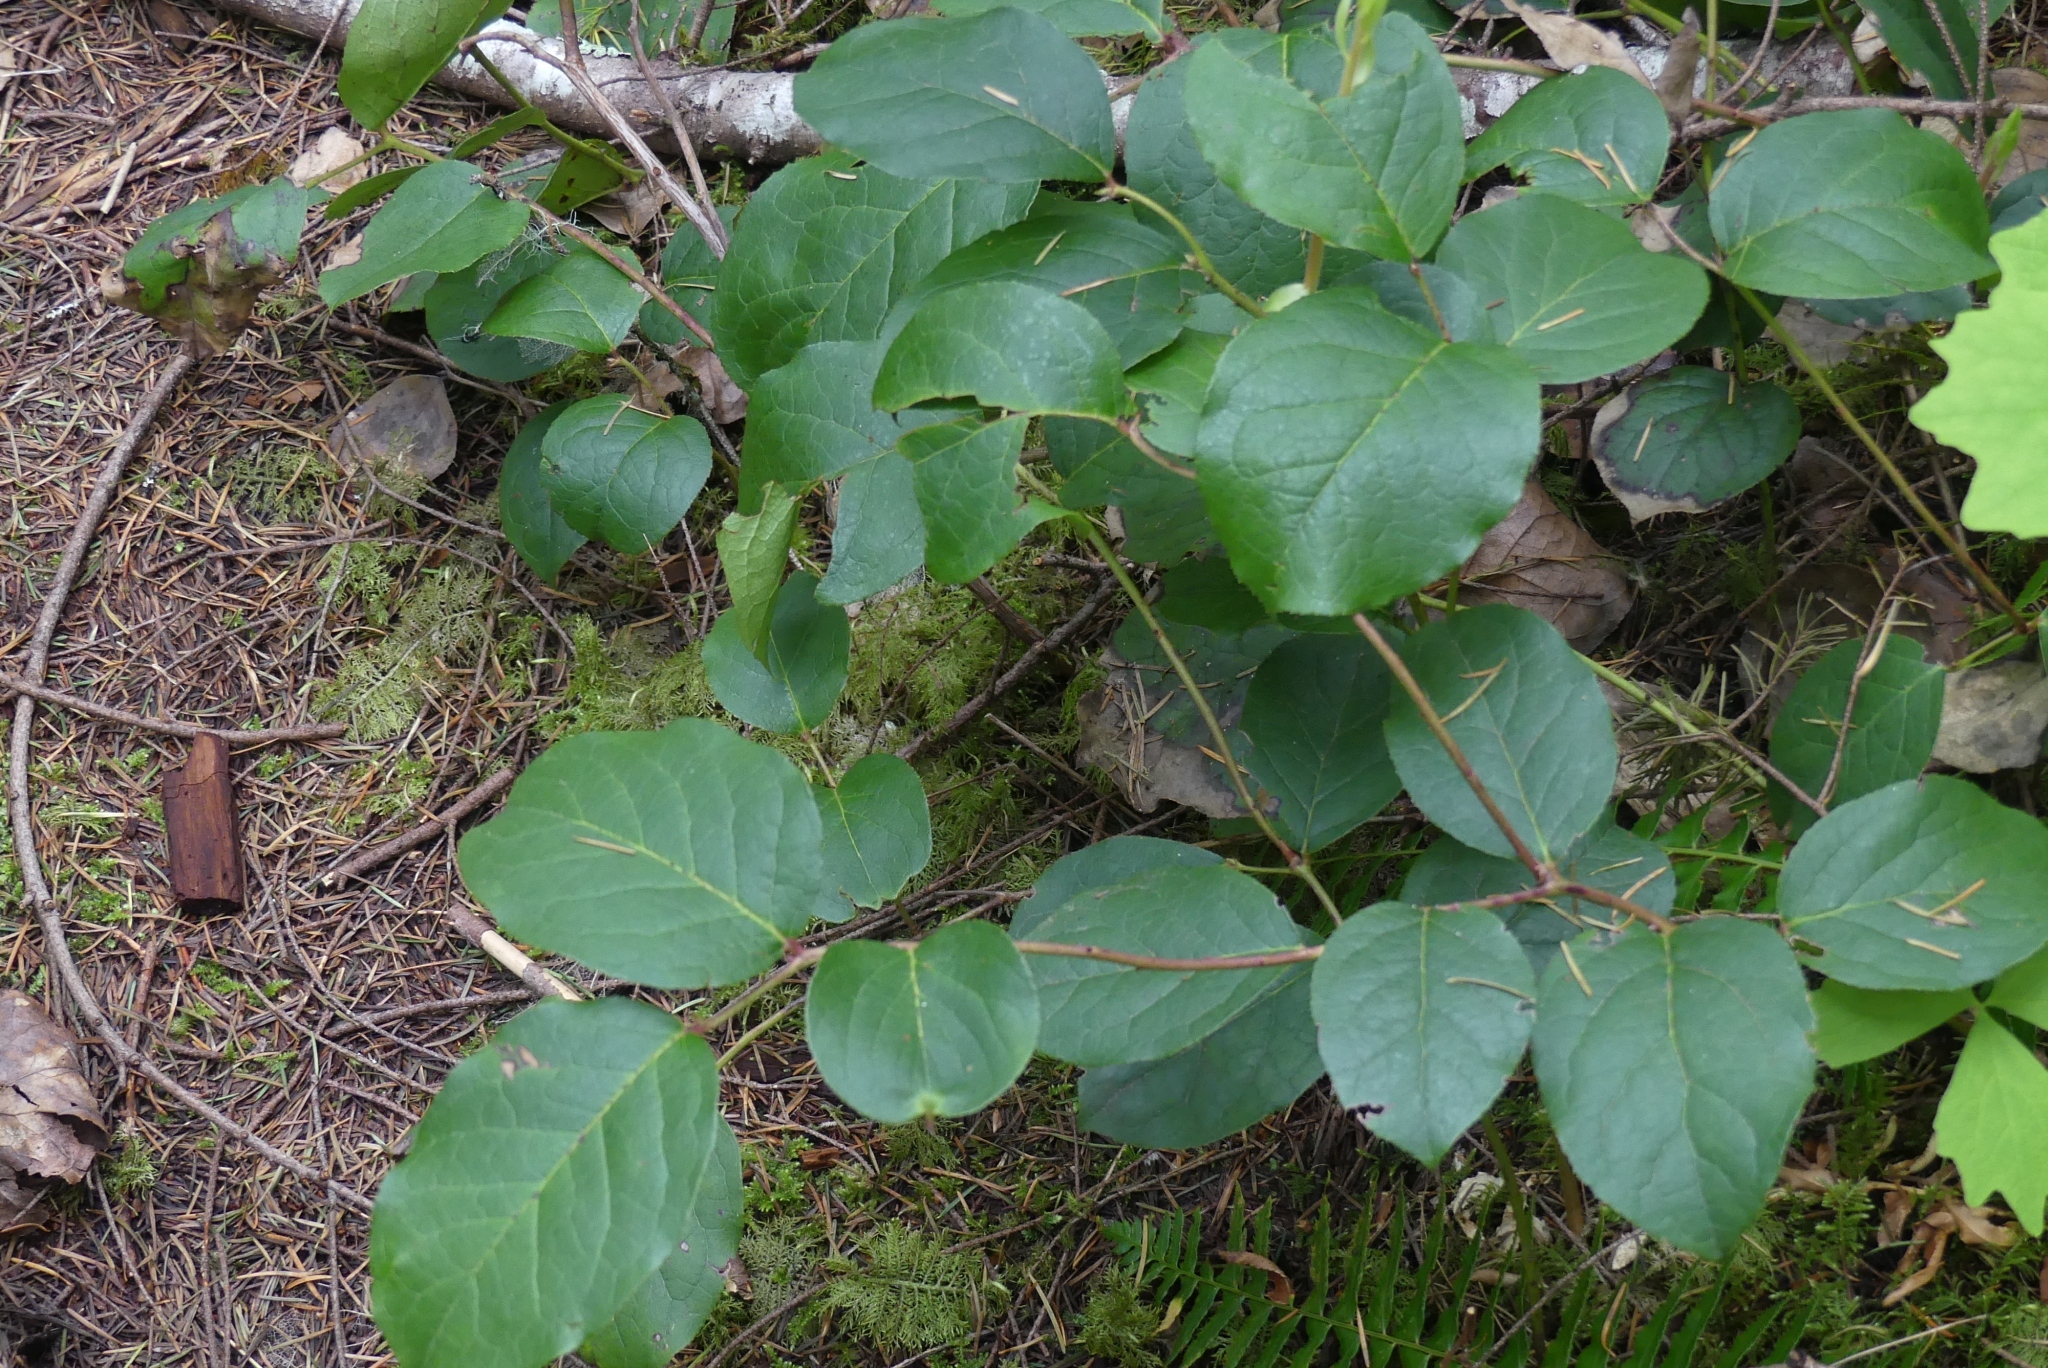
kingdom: Plantae
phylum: Tracheophyta
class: Magnoliopsida
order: Ericales
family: Ericaceae
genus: Gaultheria
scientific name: Gaultheria shallon
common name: Shallon
